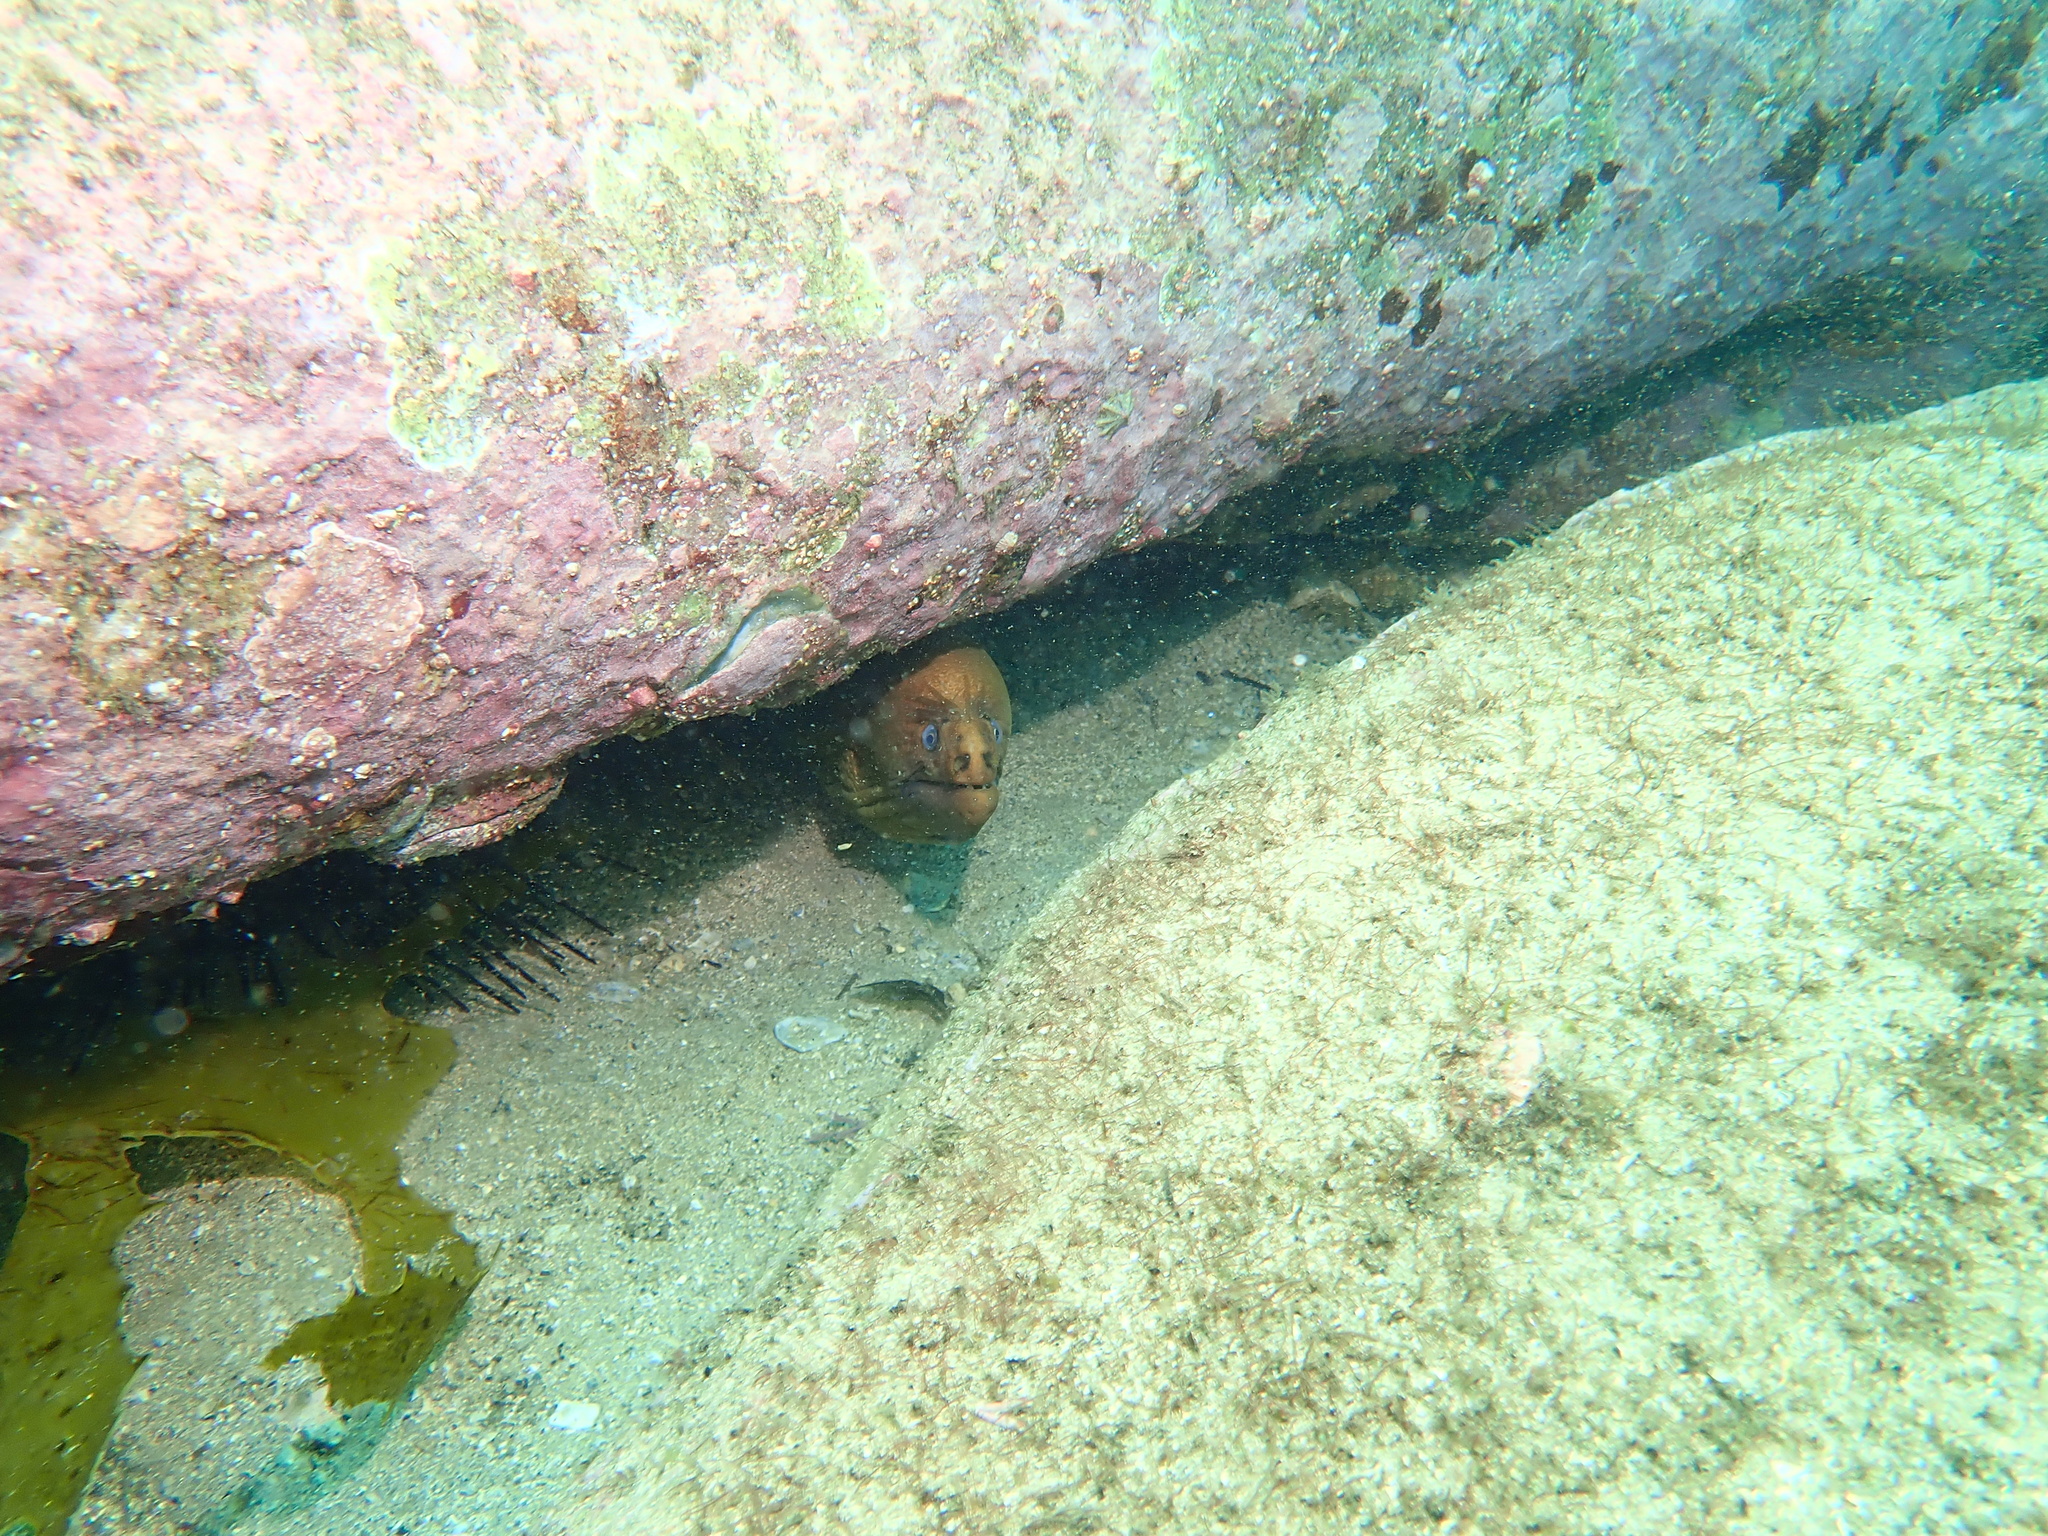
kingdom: Animalia
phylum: Chordata
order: Anguilliformes
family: Muraenidae
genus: Gymnothorax
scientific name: Gymnothorax prasinus
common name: Yellow moray
